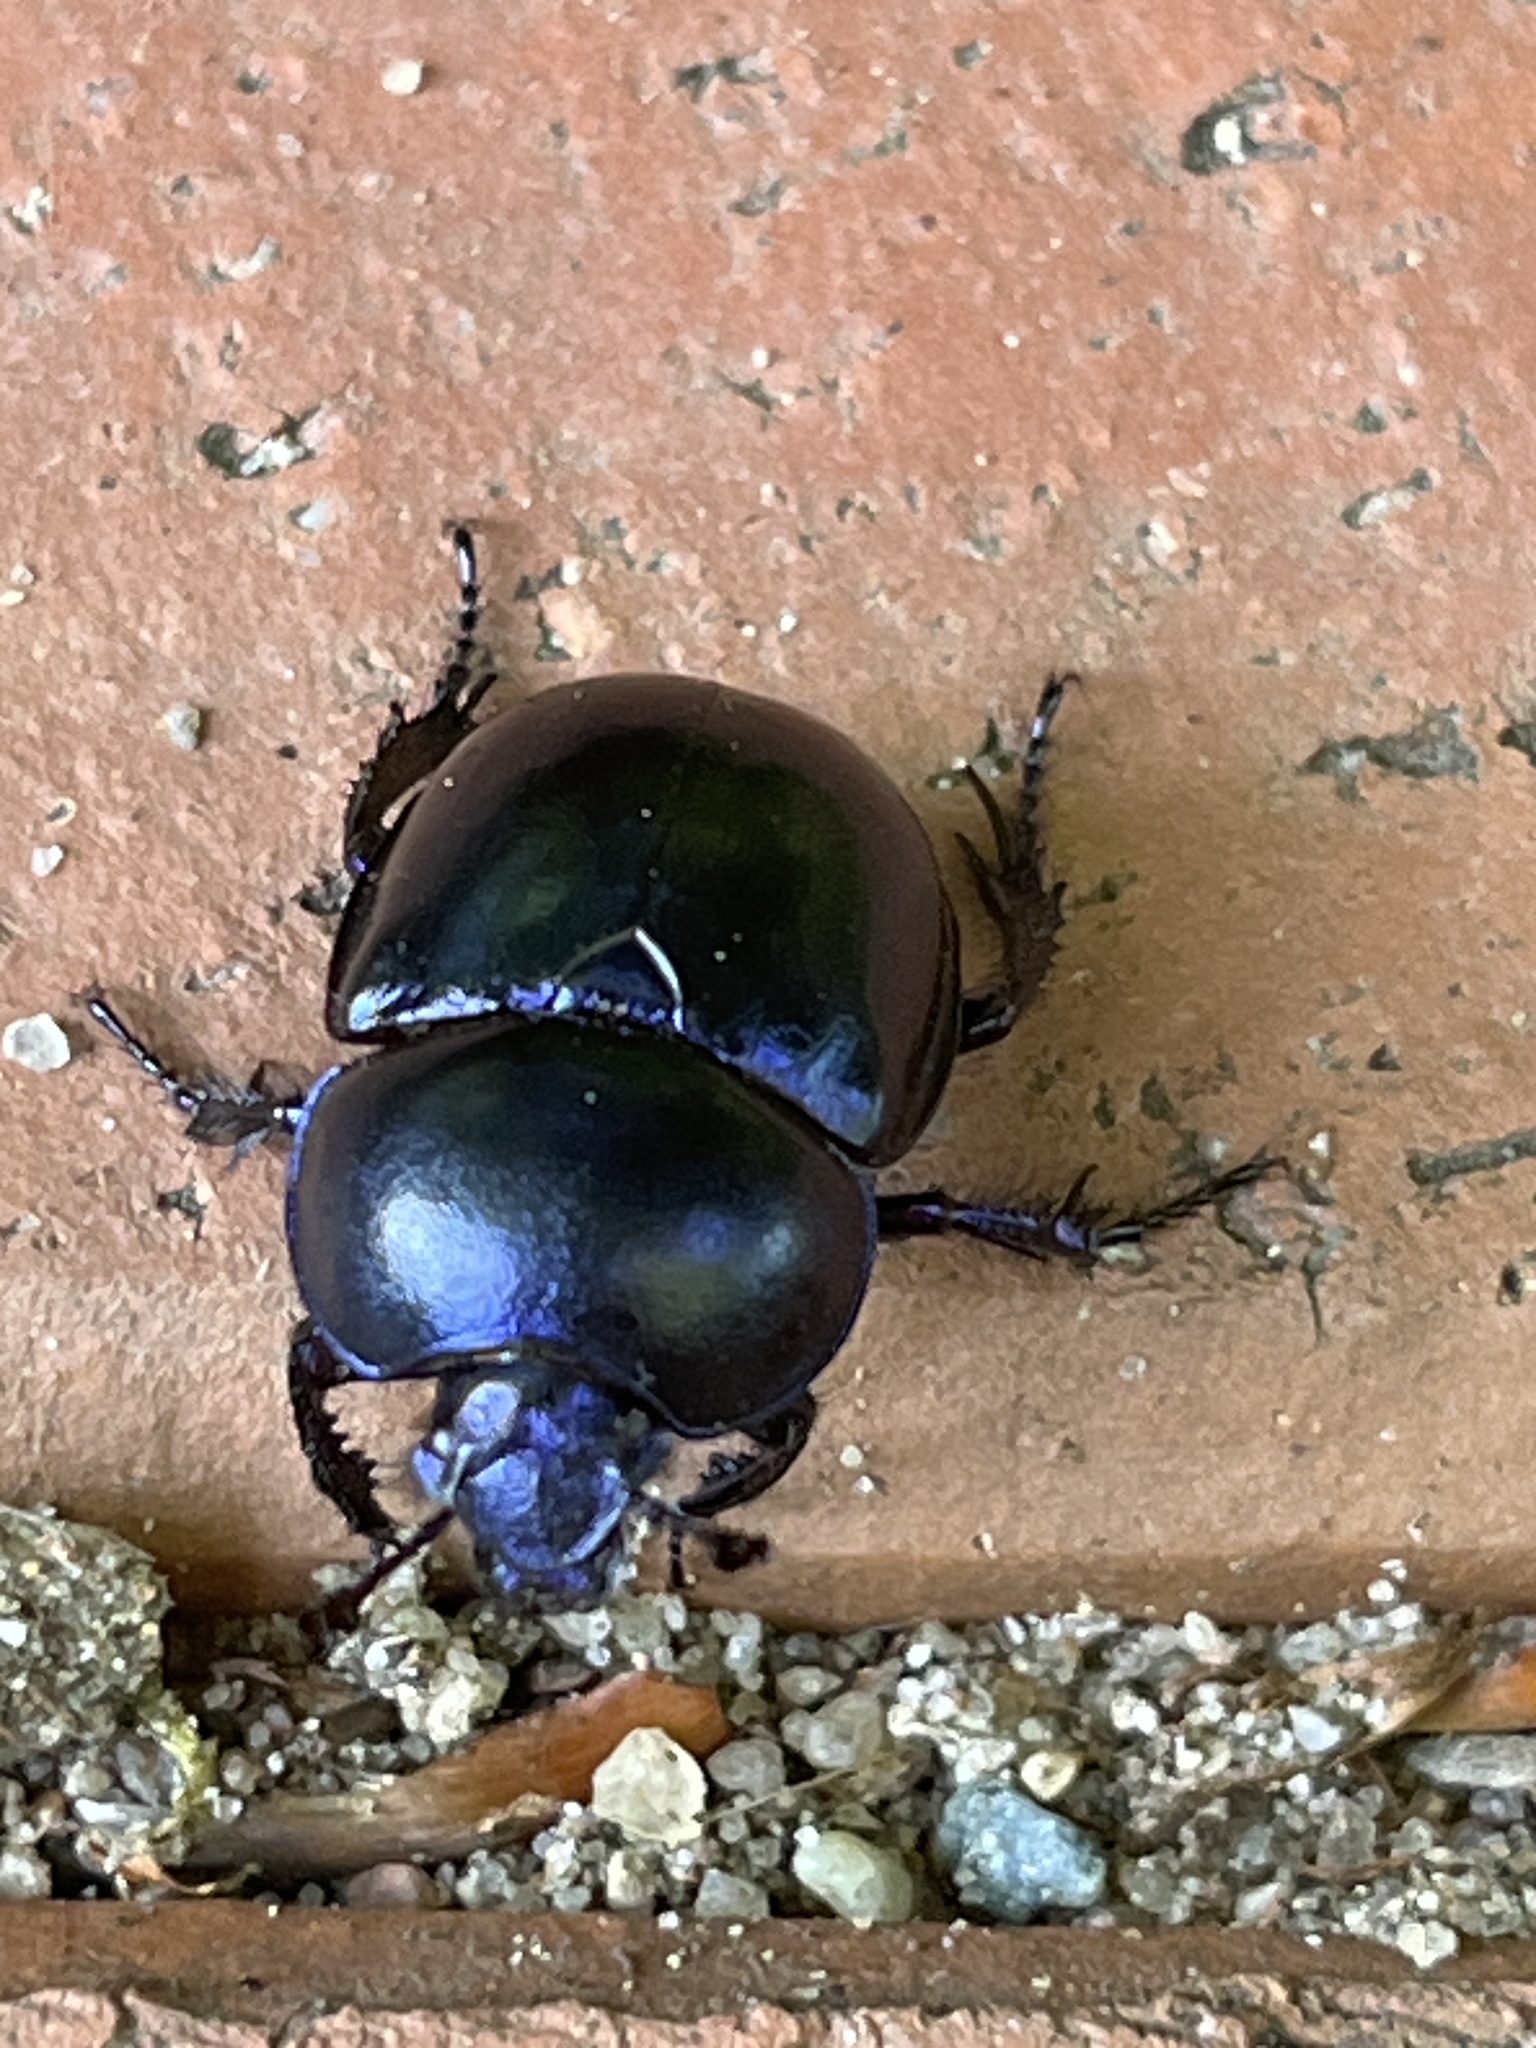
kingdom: Animalia
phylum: Arthropoda
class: Insecta
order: Coleoptera
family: Geotrupidae
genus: Trypocopris
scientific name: Trypocopris vernalis
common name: Spring dumbledor
